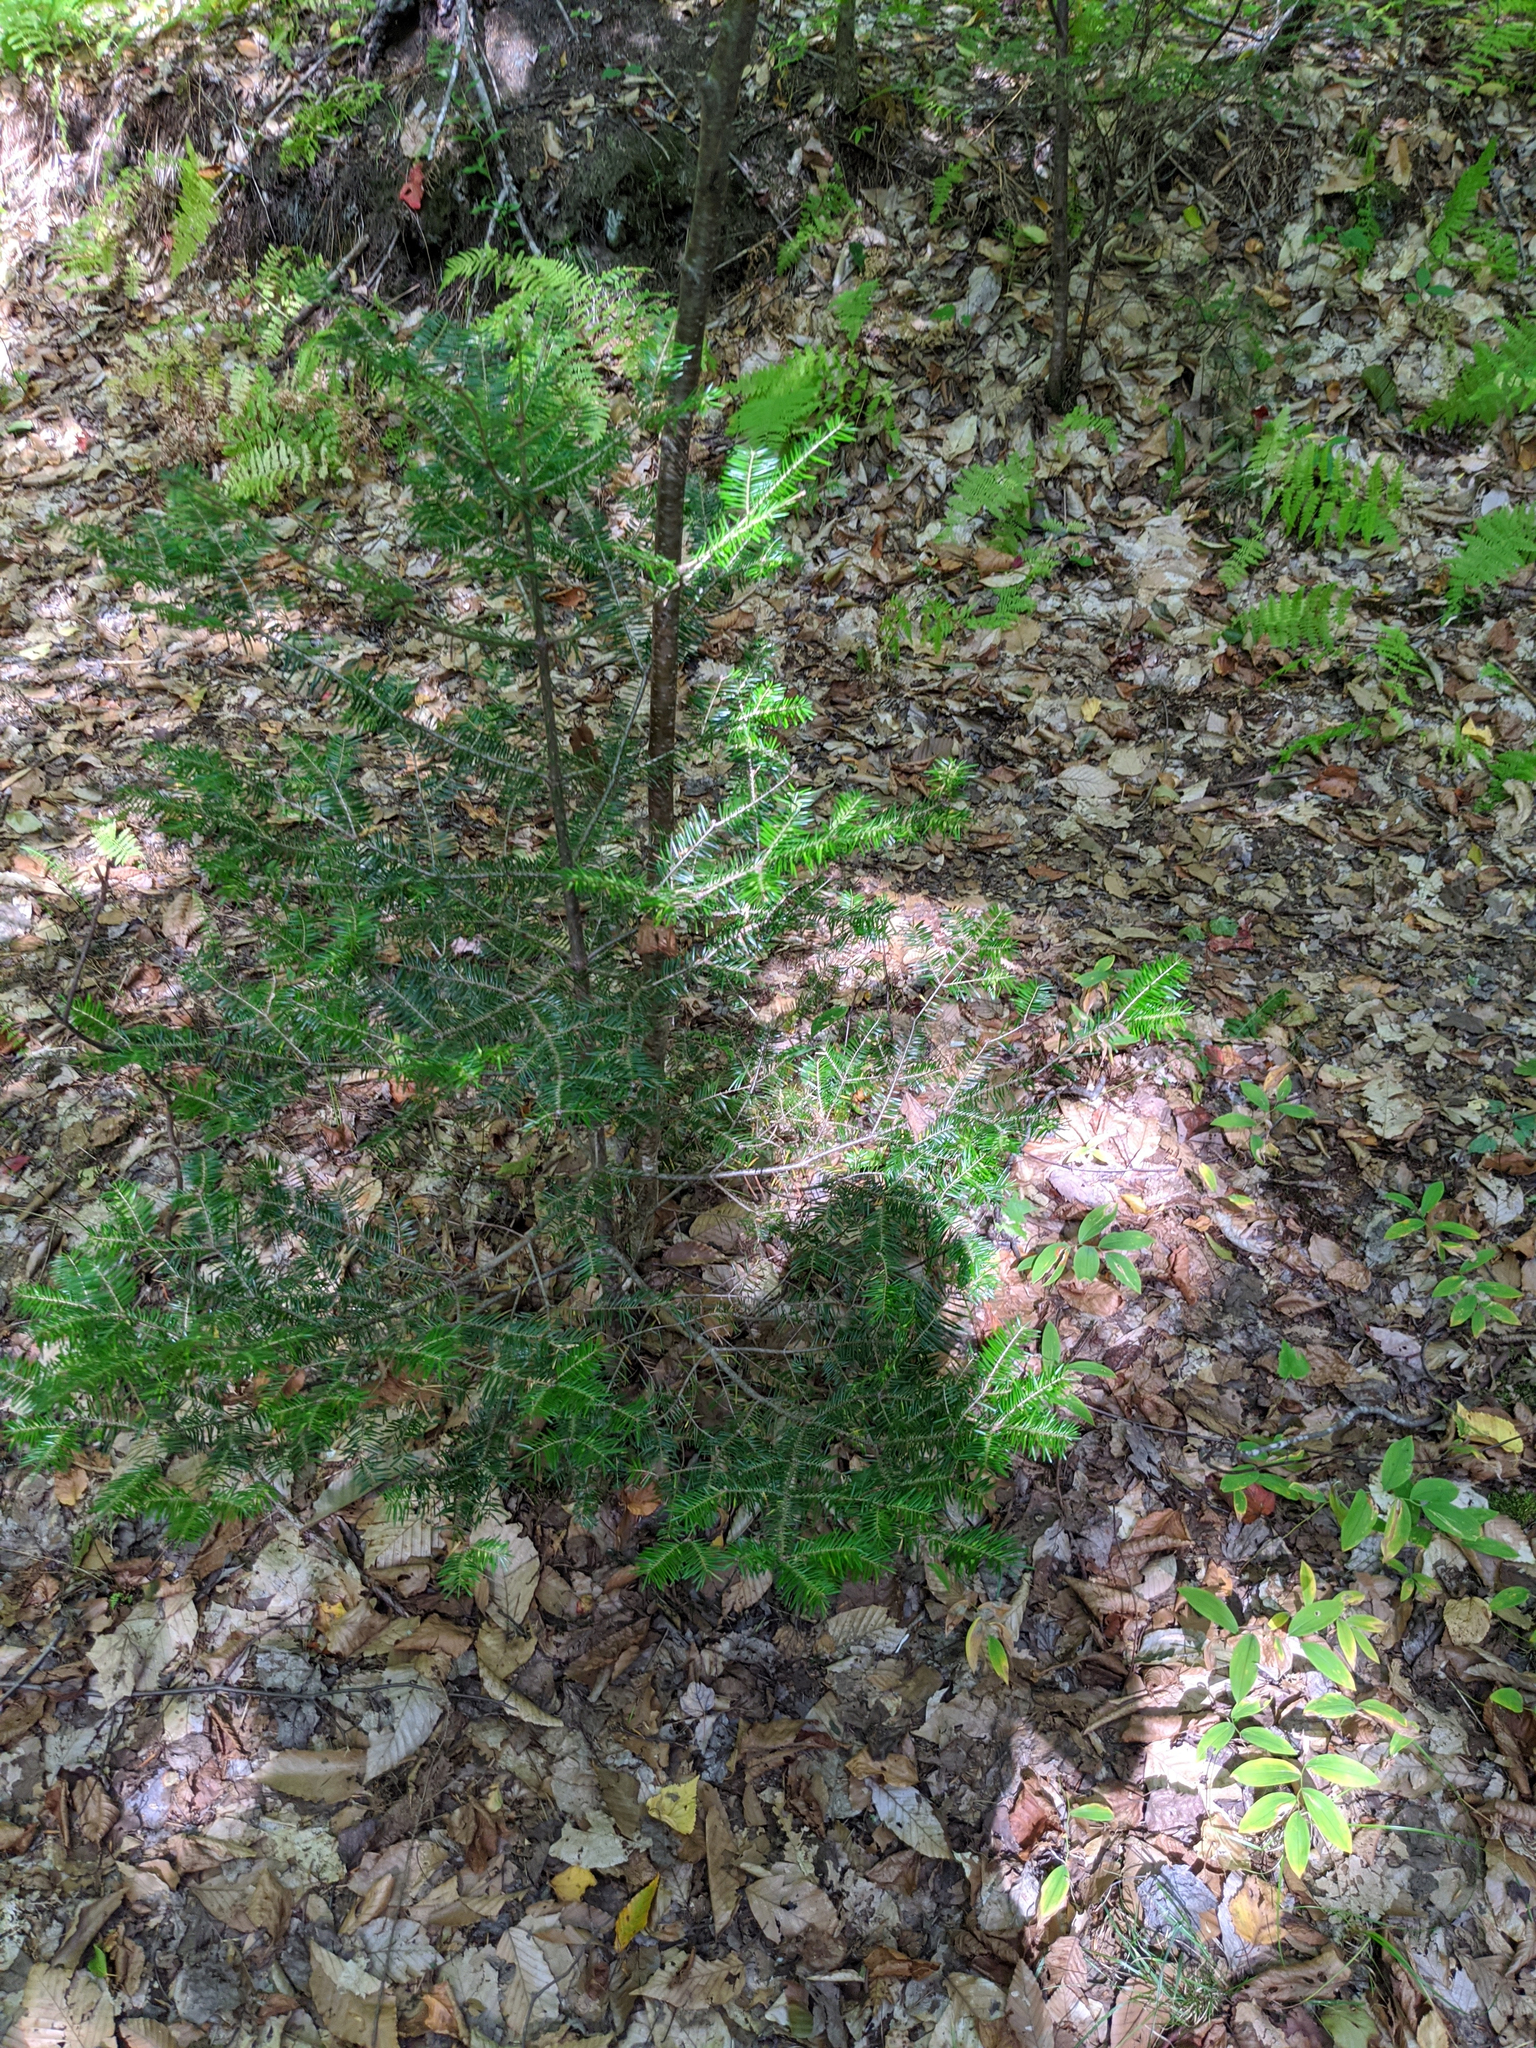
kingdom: Plantae
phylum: Tracheophyta
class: Pinopsida
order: Pinales
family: Pinaceae
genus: Abies
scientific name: Abies balsamea
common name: Balsam fir
